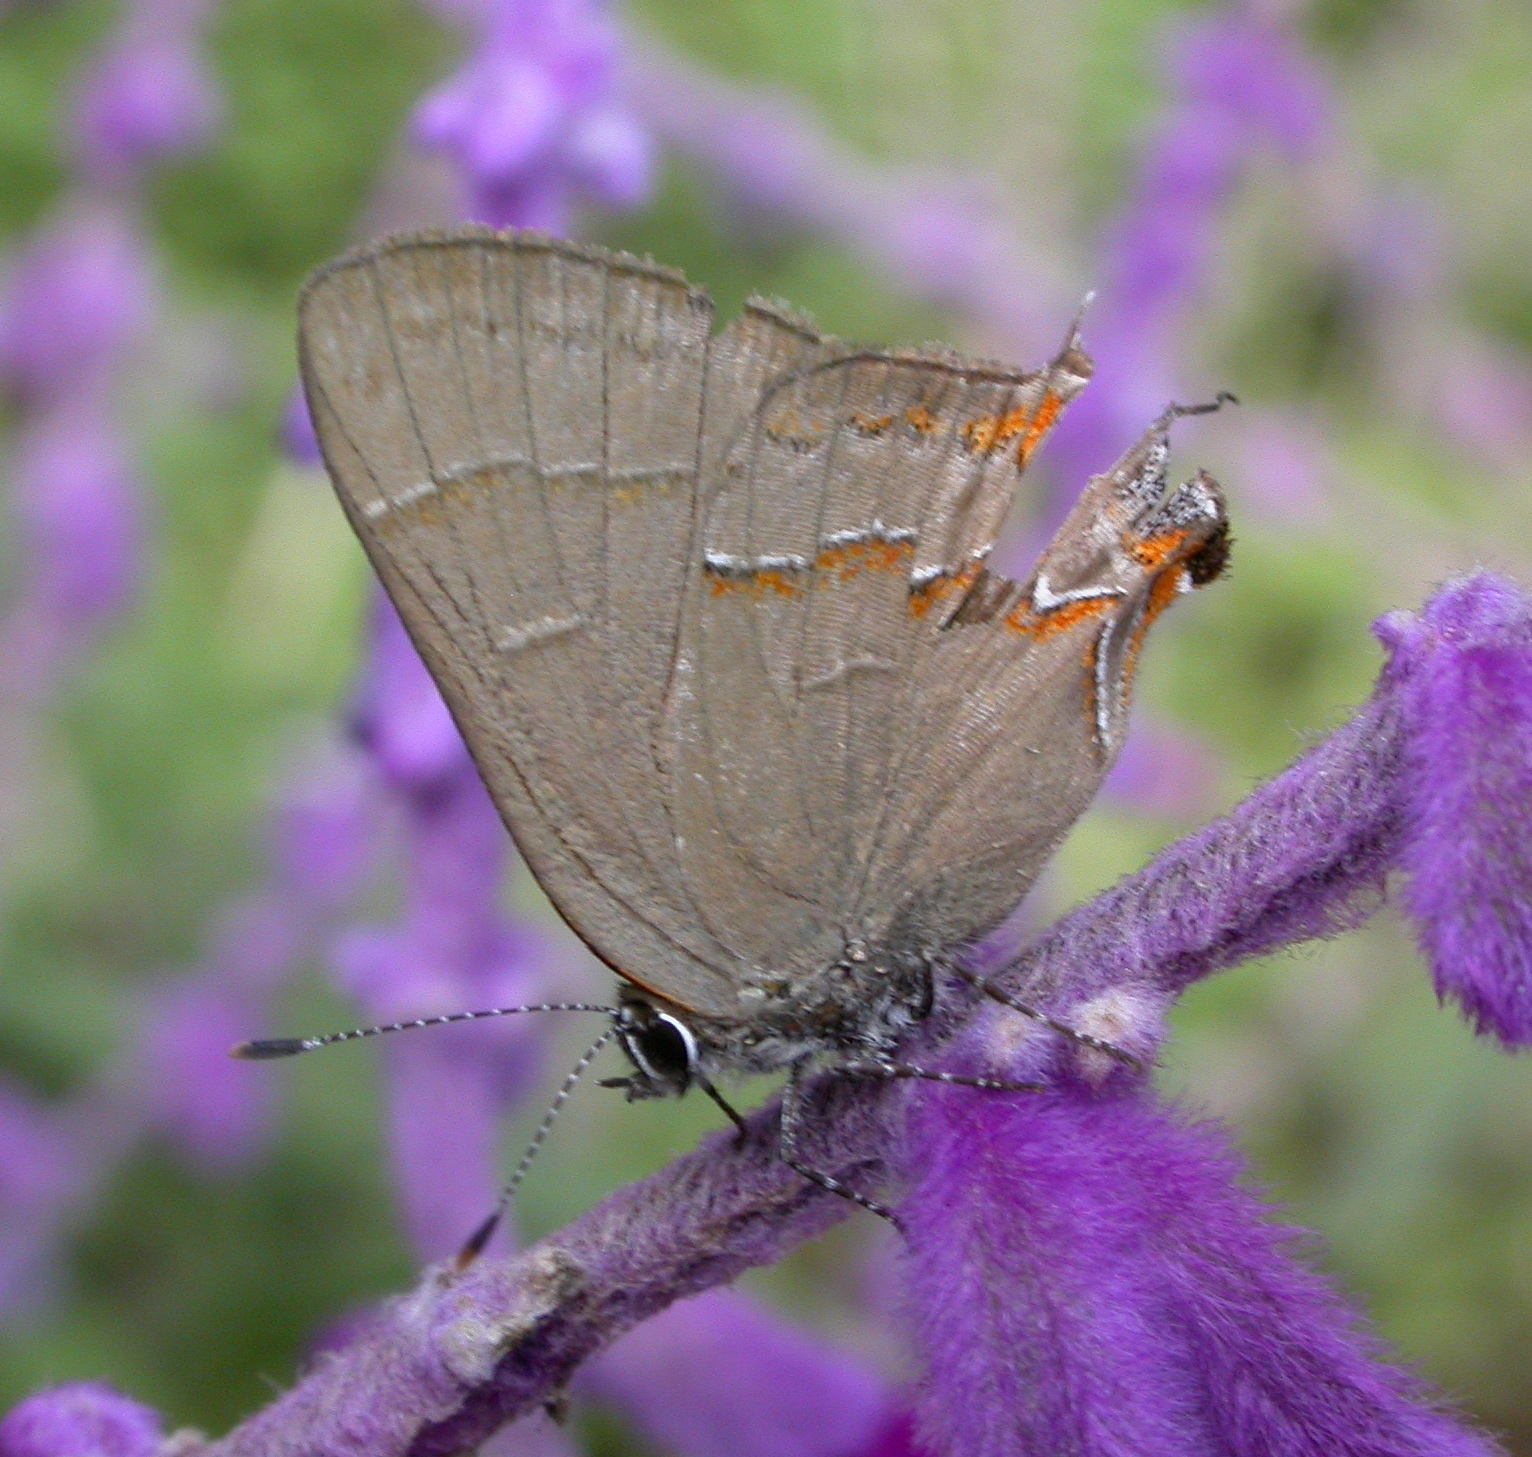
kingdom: Animalia
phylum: Arthropoda
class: Insecta
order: Lepidoptera
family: Lycaenidae
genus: Electrostrymon
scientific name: Electrostrymon
